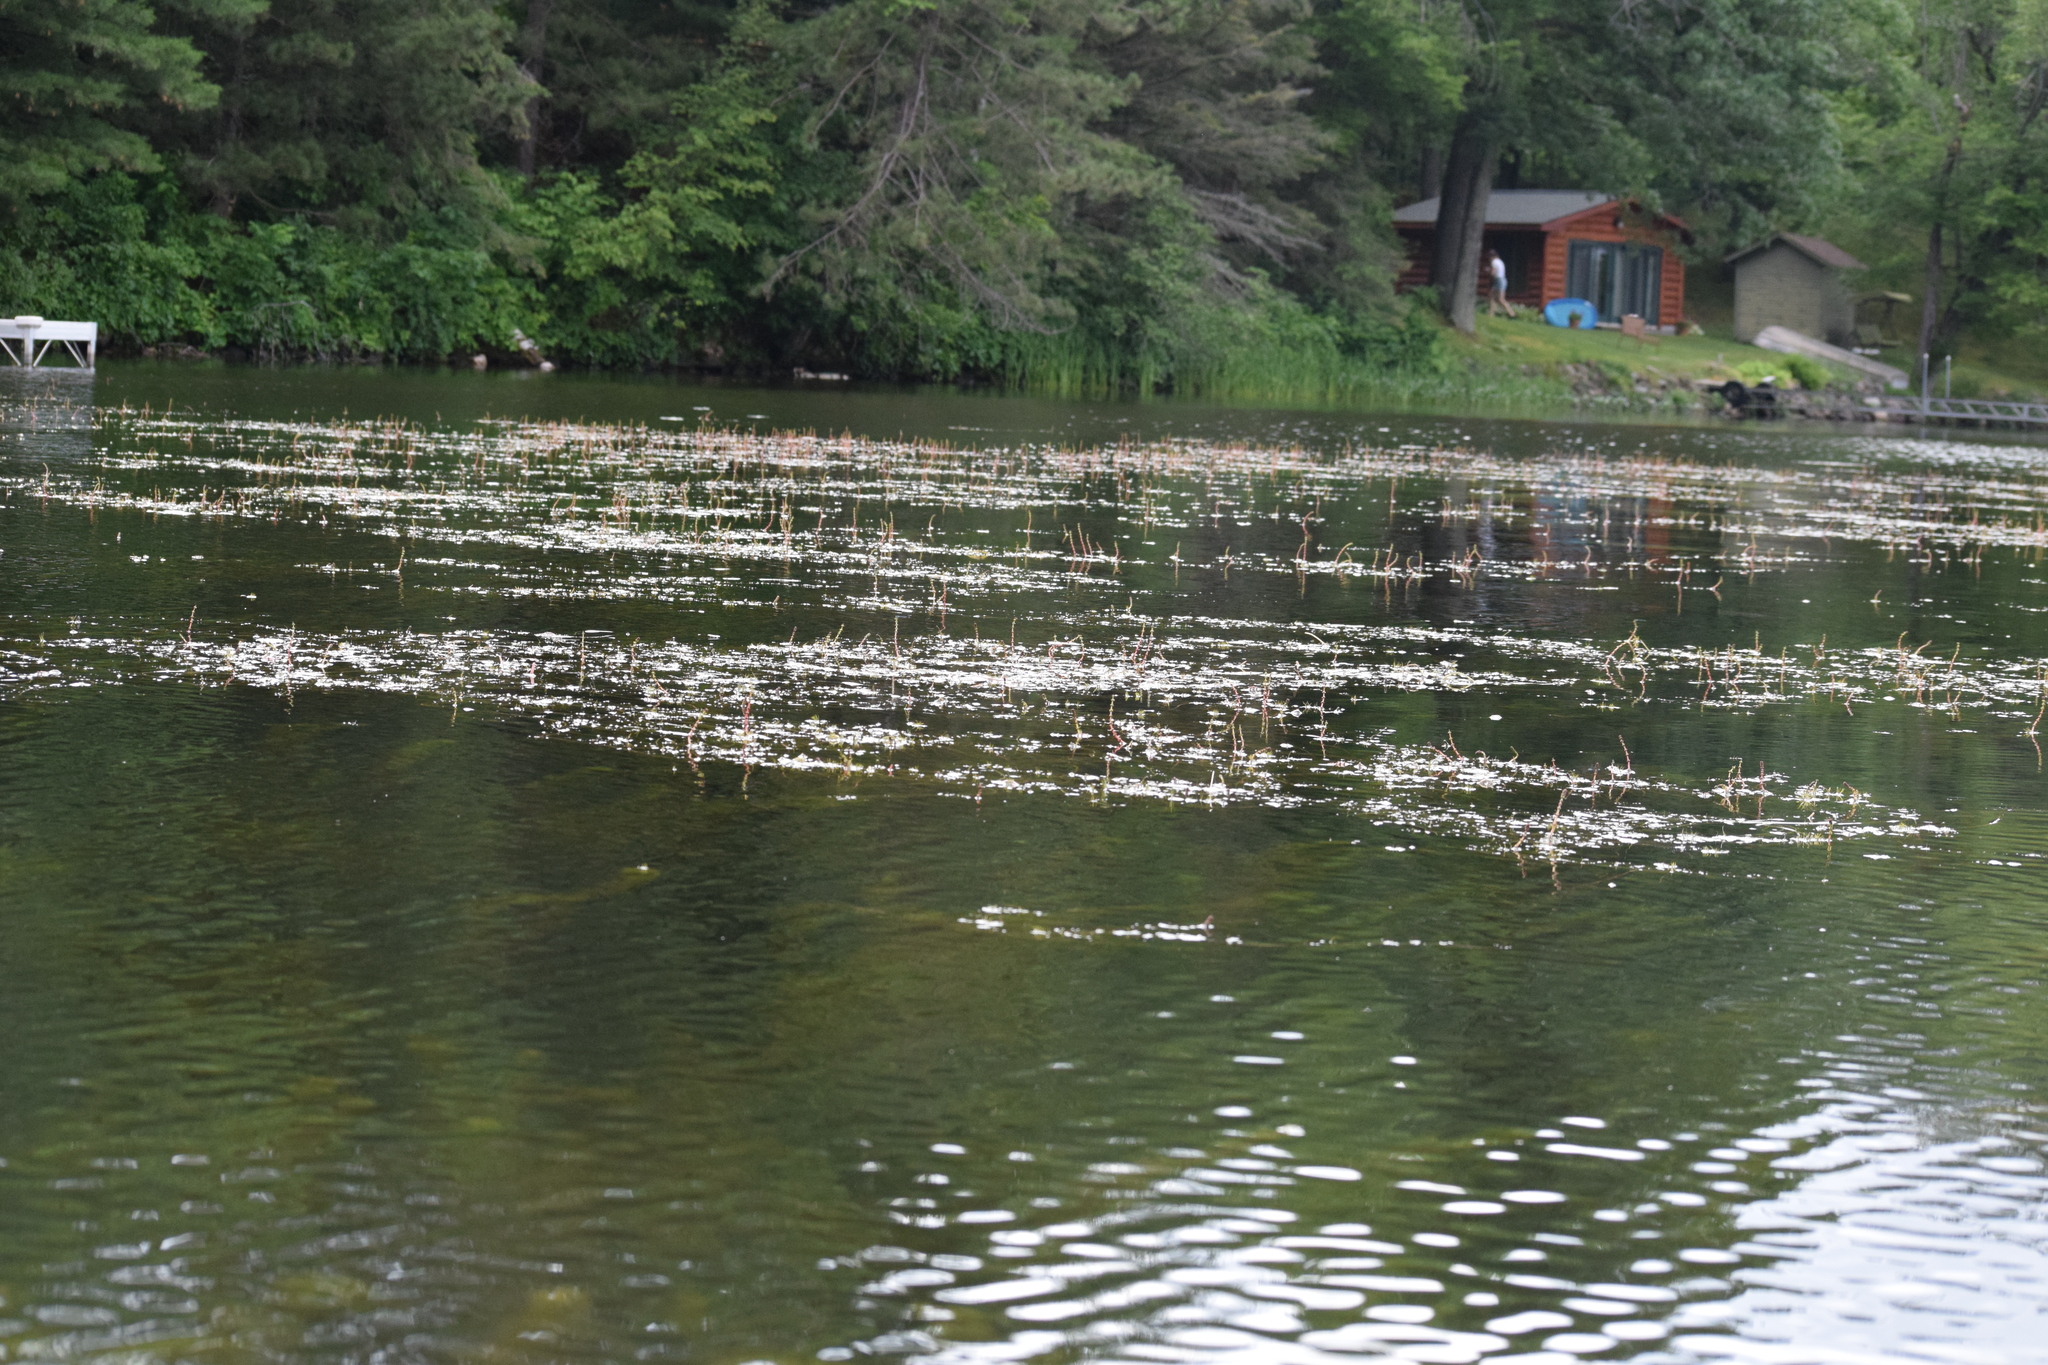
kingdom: Plantae
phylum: Tracheophyta
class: Magnoliopsida
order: Saxifragales
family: Haloragaceae
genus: Myriophyllum
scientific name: Myriophyllum sibiricum
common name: Siberian water-milfoil
